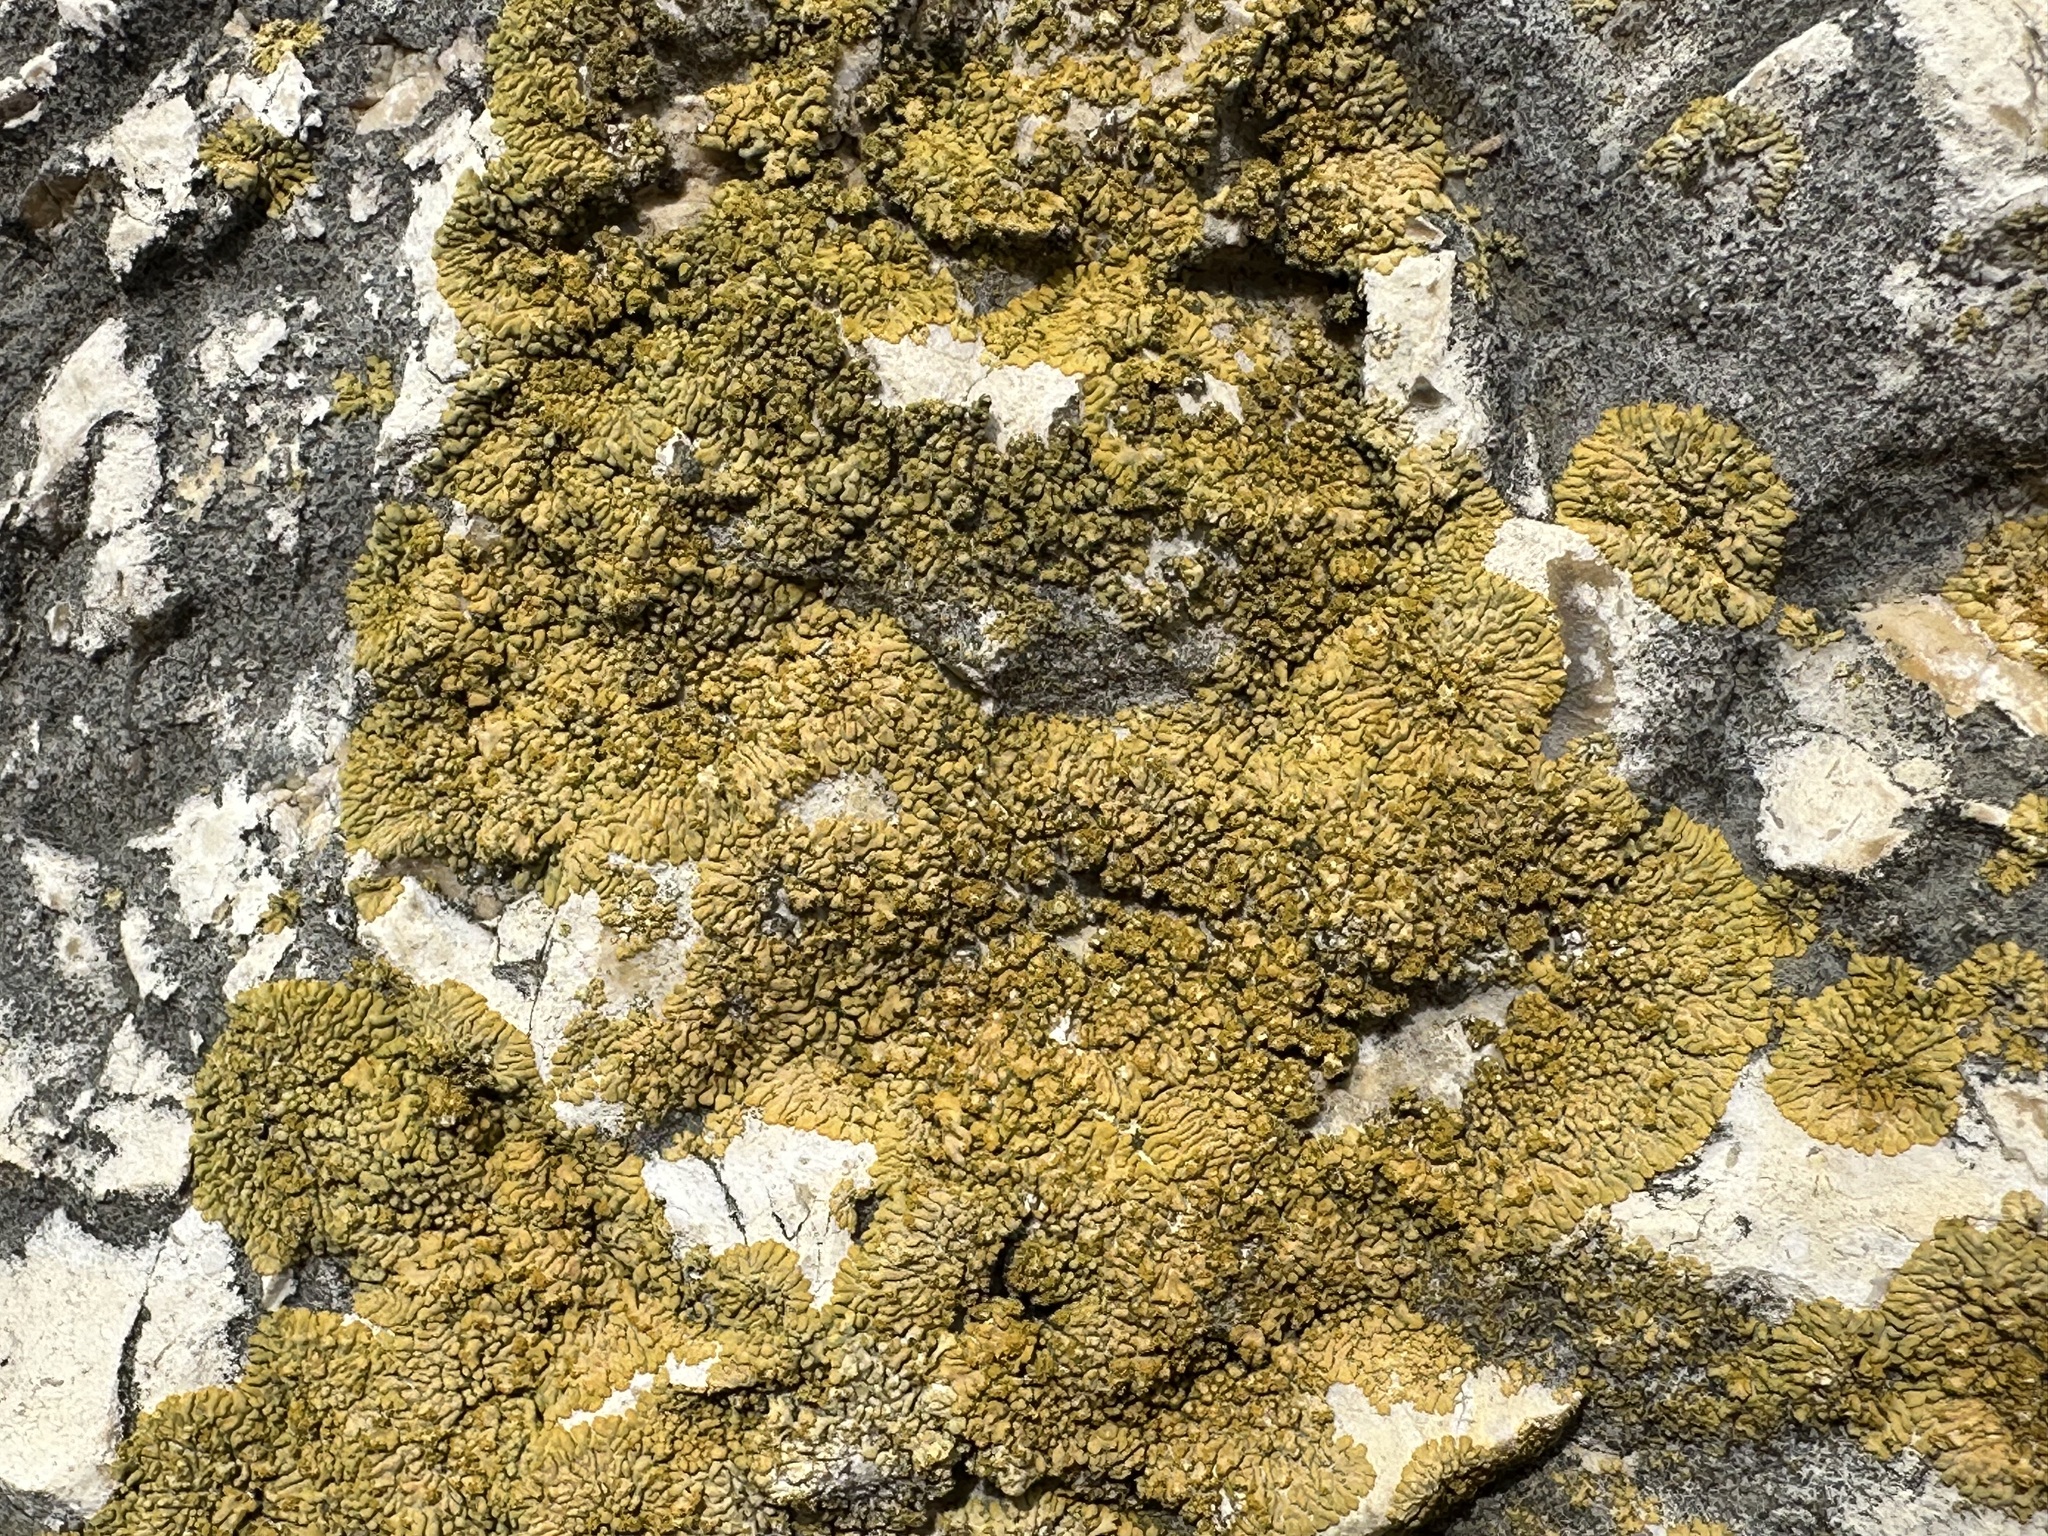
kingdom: Fungi
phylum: Ascomycota
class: Lecanoromycetes
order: Teloschistales
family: Teloschistaceae
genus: Calogaya
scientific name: Calogaya decipiens
